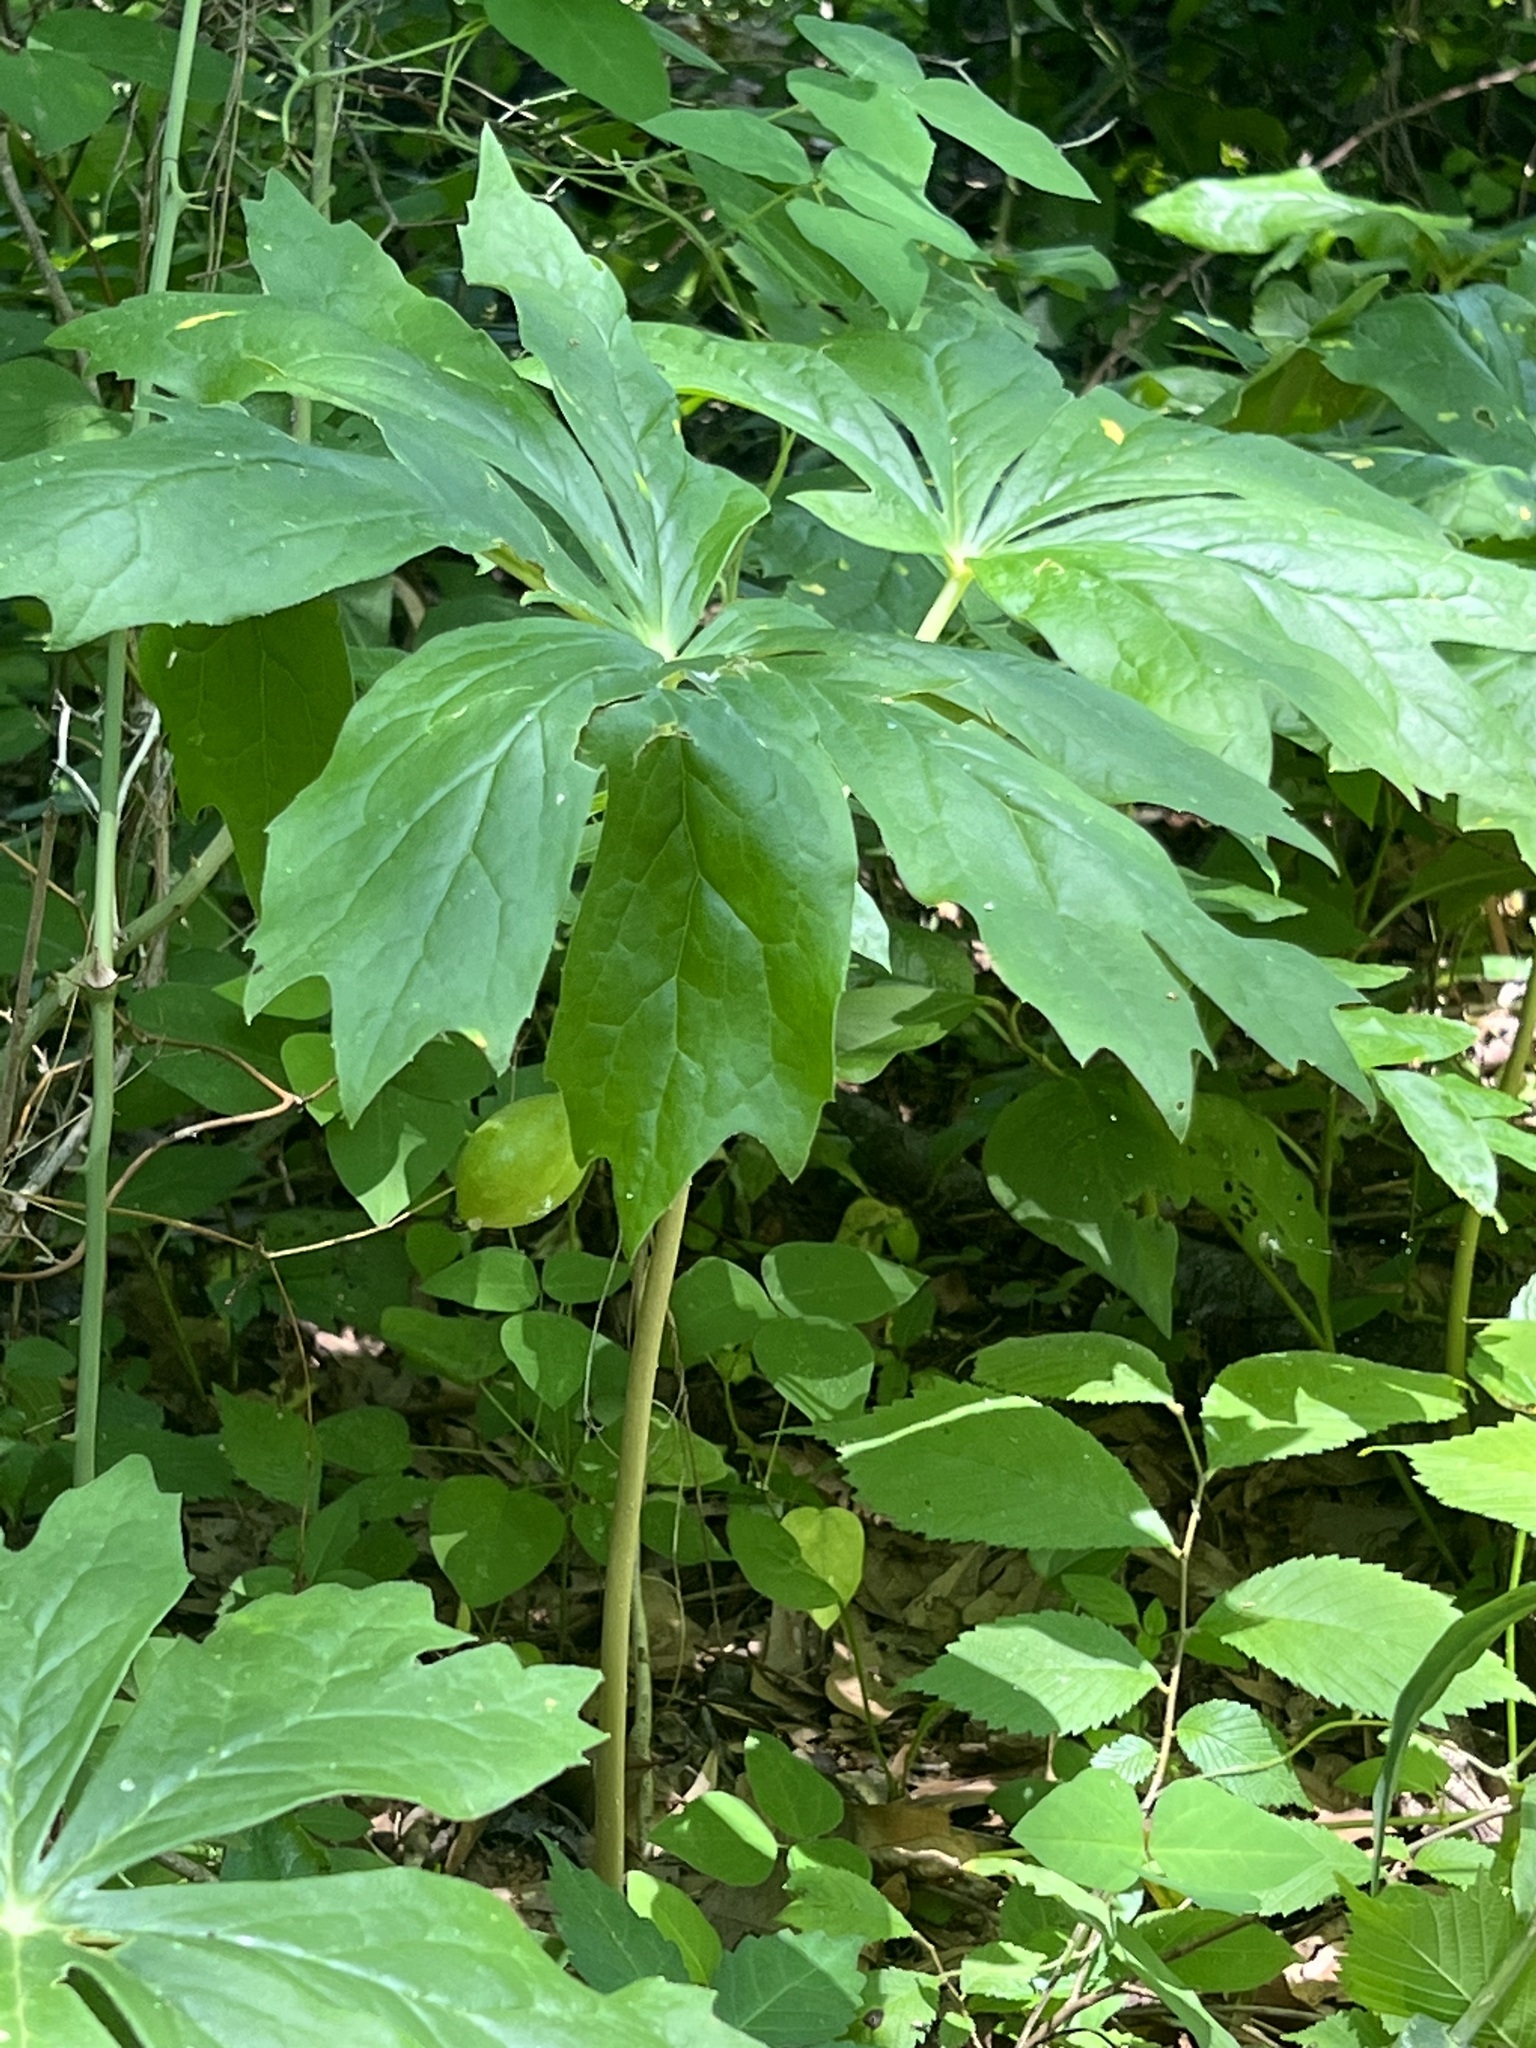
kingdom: Plantae
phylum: Tracheophyta
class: Magnoliopsida
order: Ranunculales
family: Berberidaceae
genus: Podophyllum
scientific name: Podophyllum peltatum
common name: Wild mandrake
